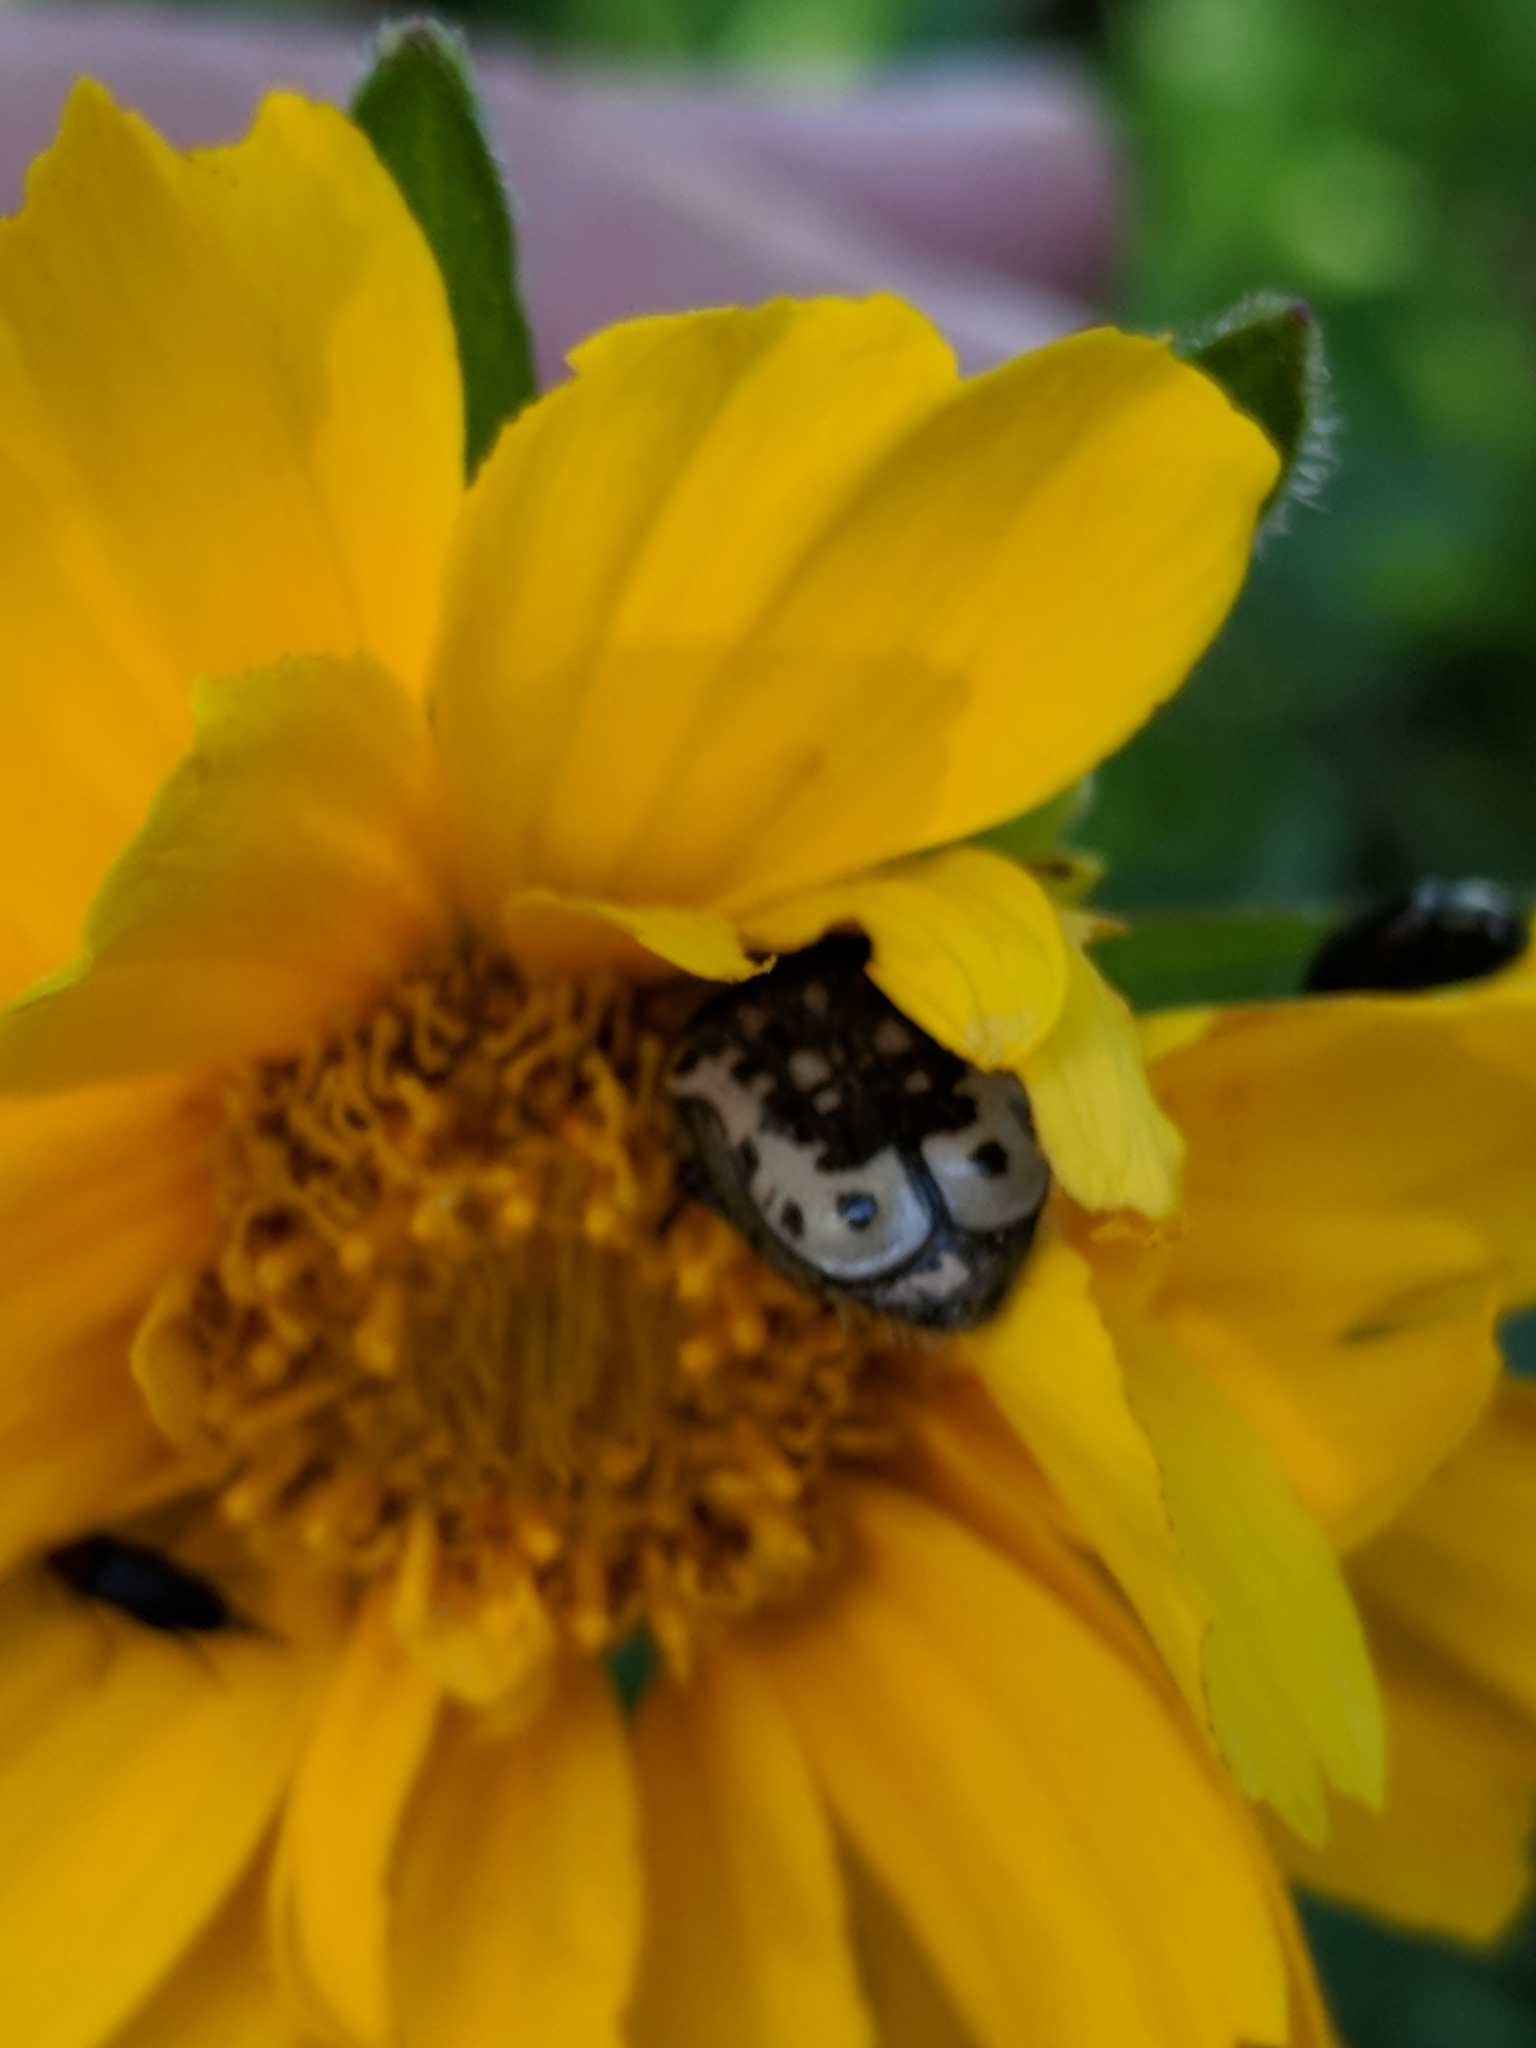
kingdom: Animalia
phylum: Arthropoda
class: Insecta
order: Coleoptera
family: Scarabaeidae
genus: Euphoria
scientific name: Euphoria kernii
